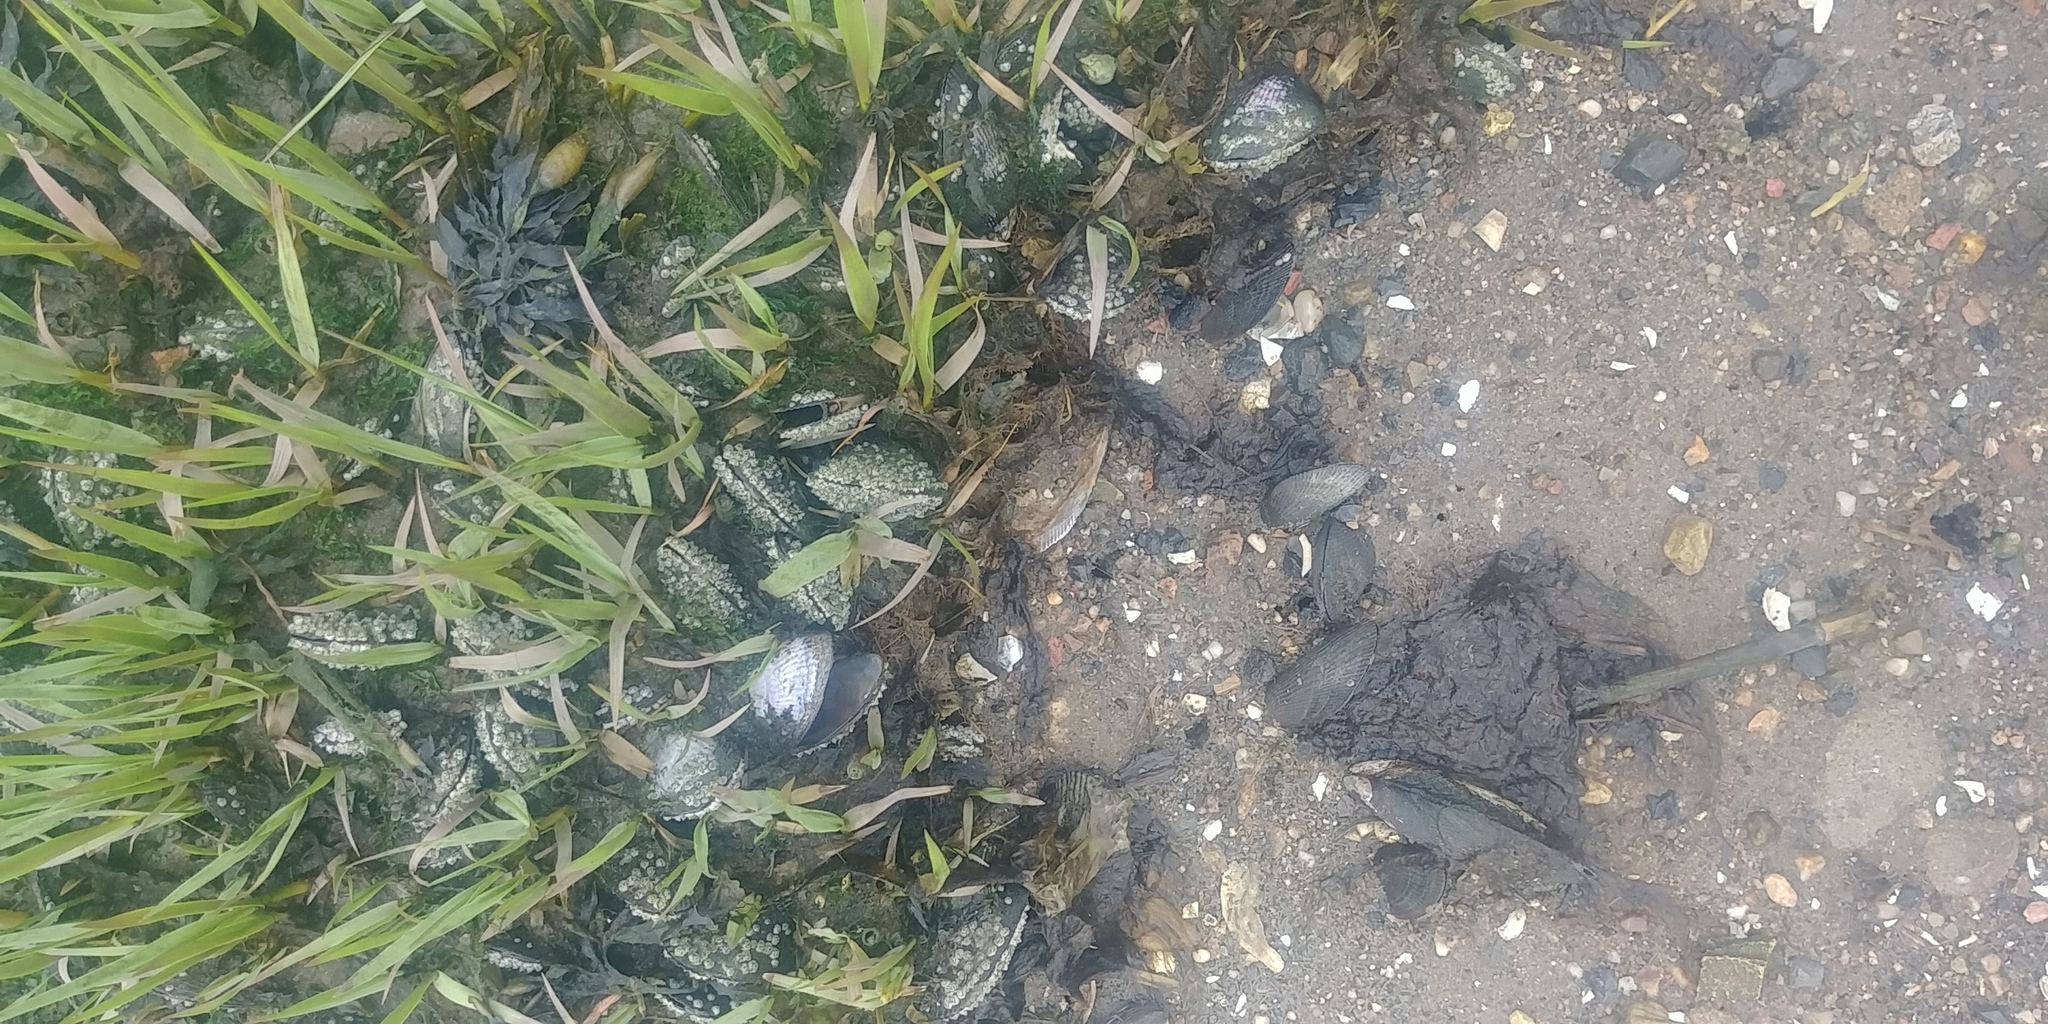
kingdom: Plantae
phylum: Tracheophyta
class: Liliopsida
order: Poales
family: Poaceae
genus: Sporobolus
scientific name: Sporobolus alterniflorus
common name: Atlantic cordgrass
